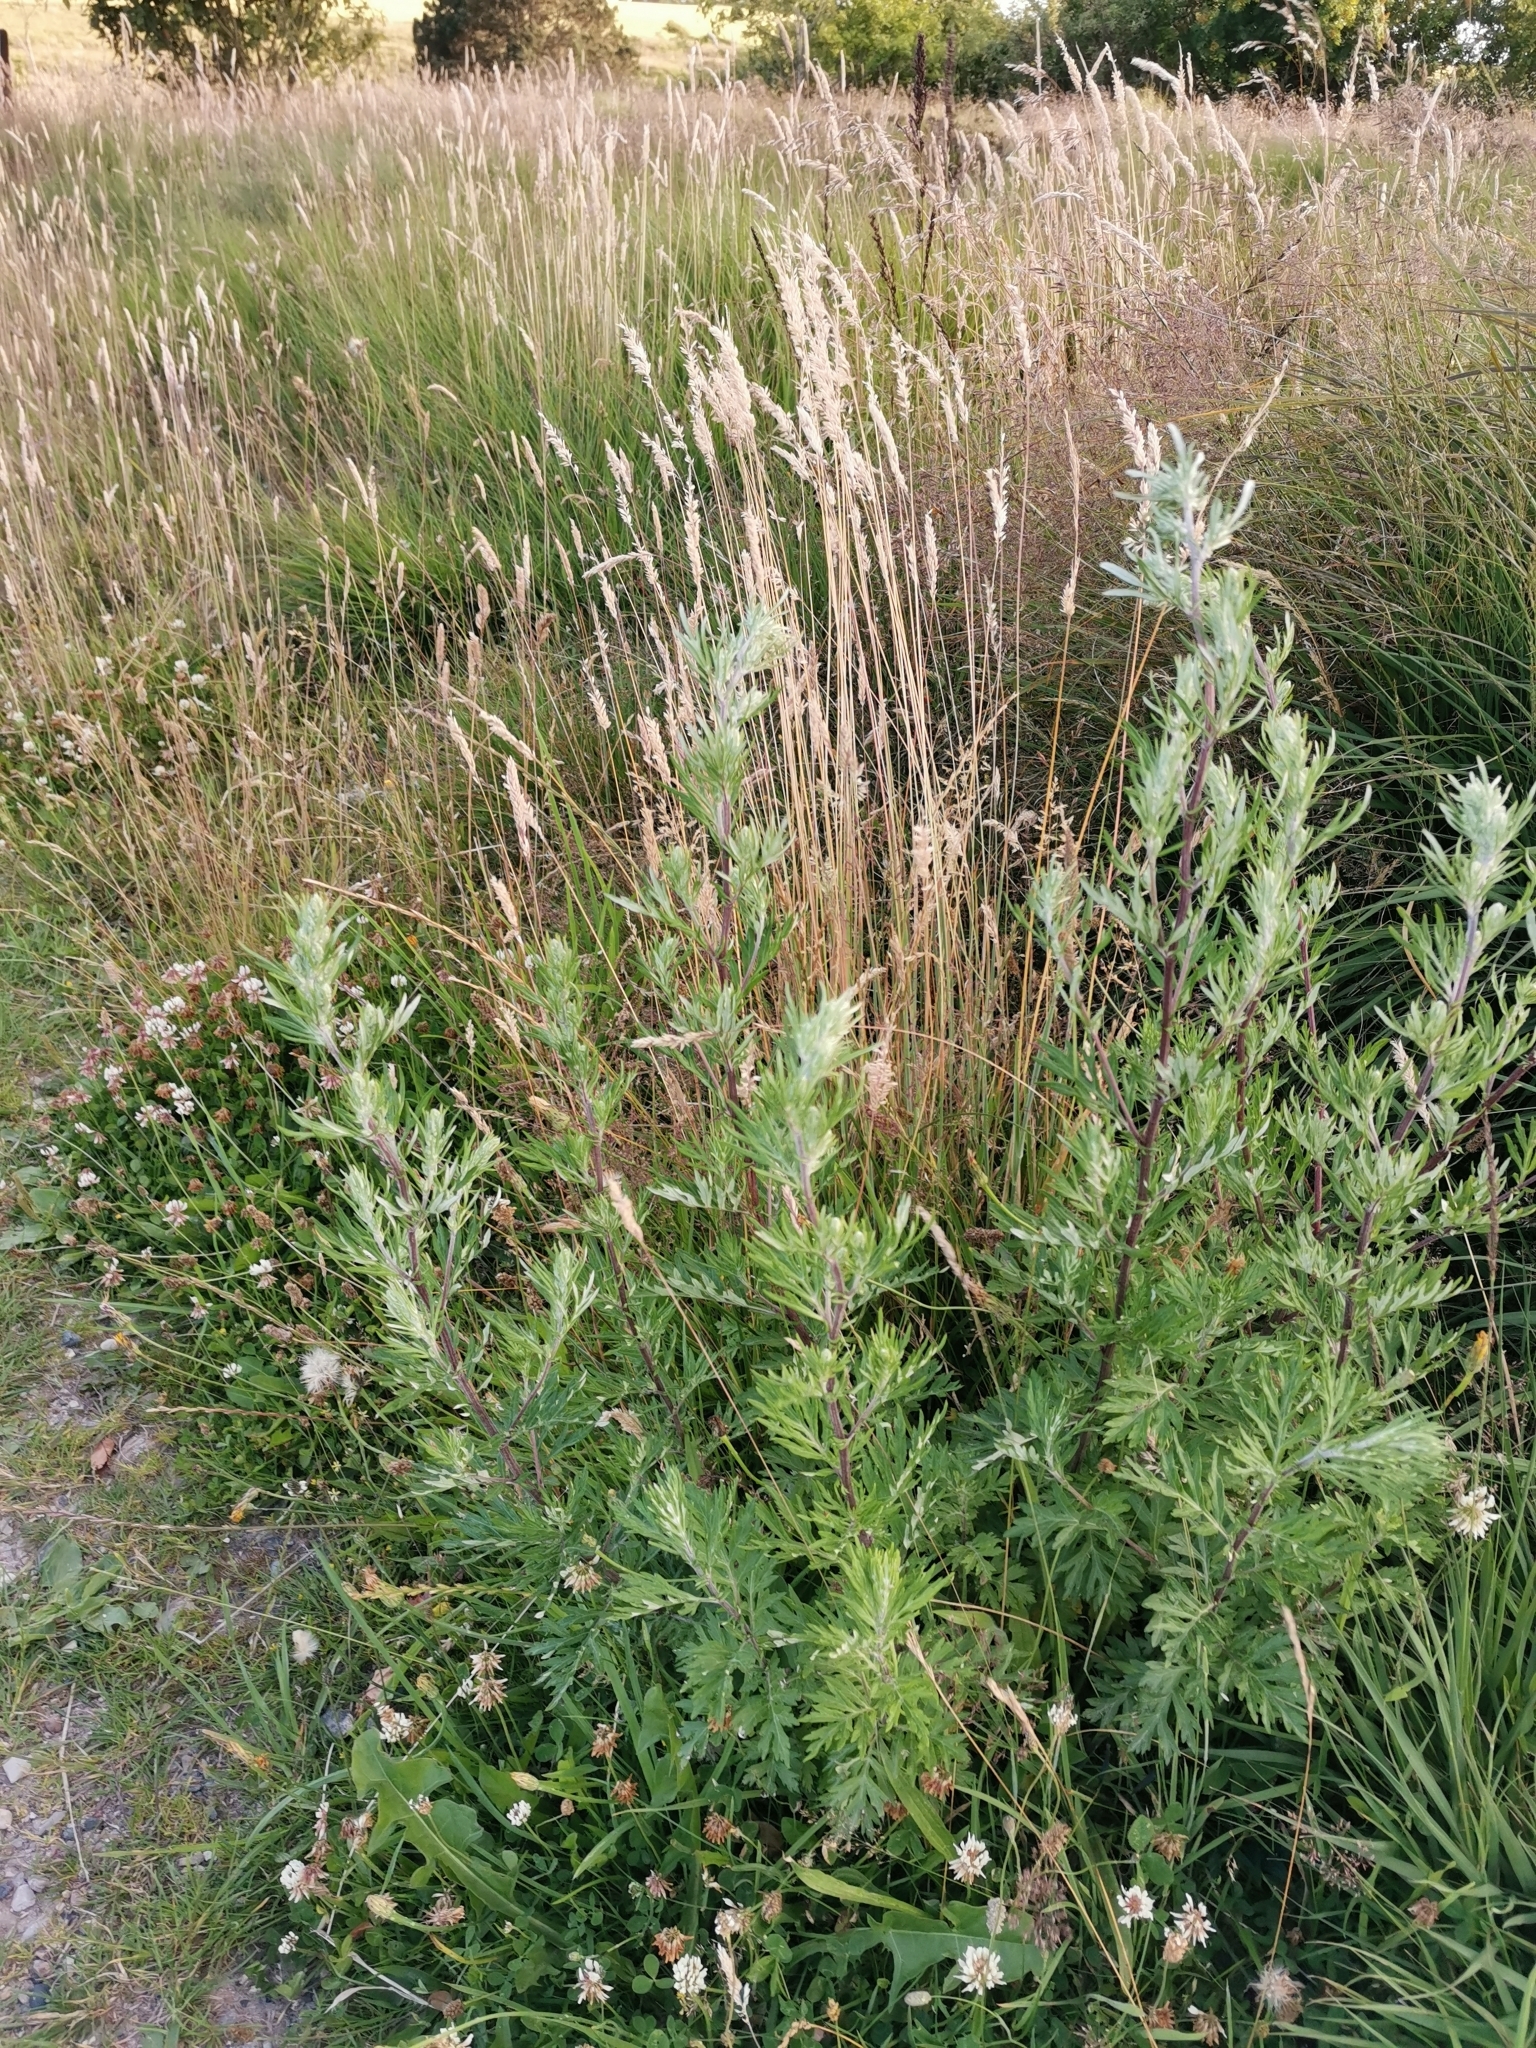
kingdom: Plantae
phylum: Tracheophyta
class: Magnoliopsida
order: Asterales
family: Asteraceae
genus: Artemisia
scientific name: Artemisia vulgaris
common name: Mugwort
